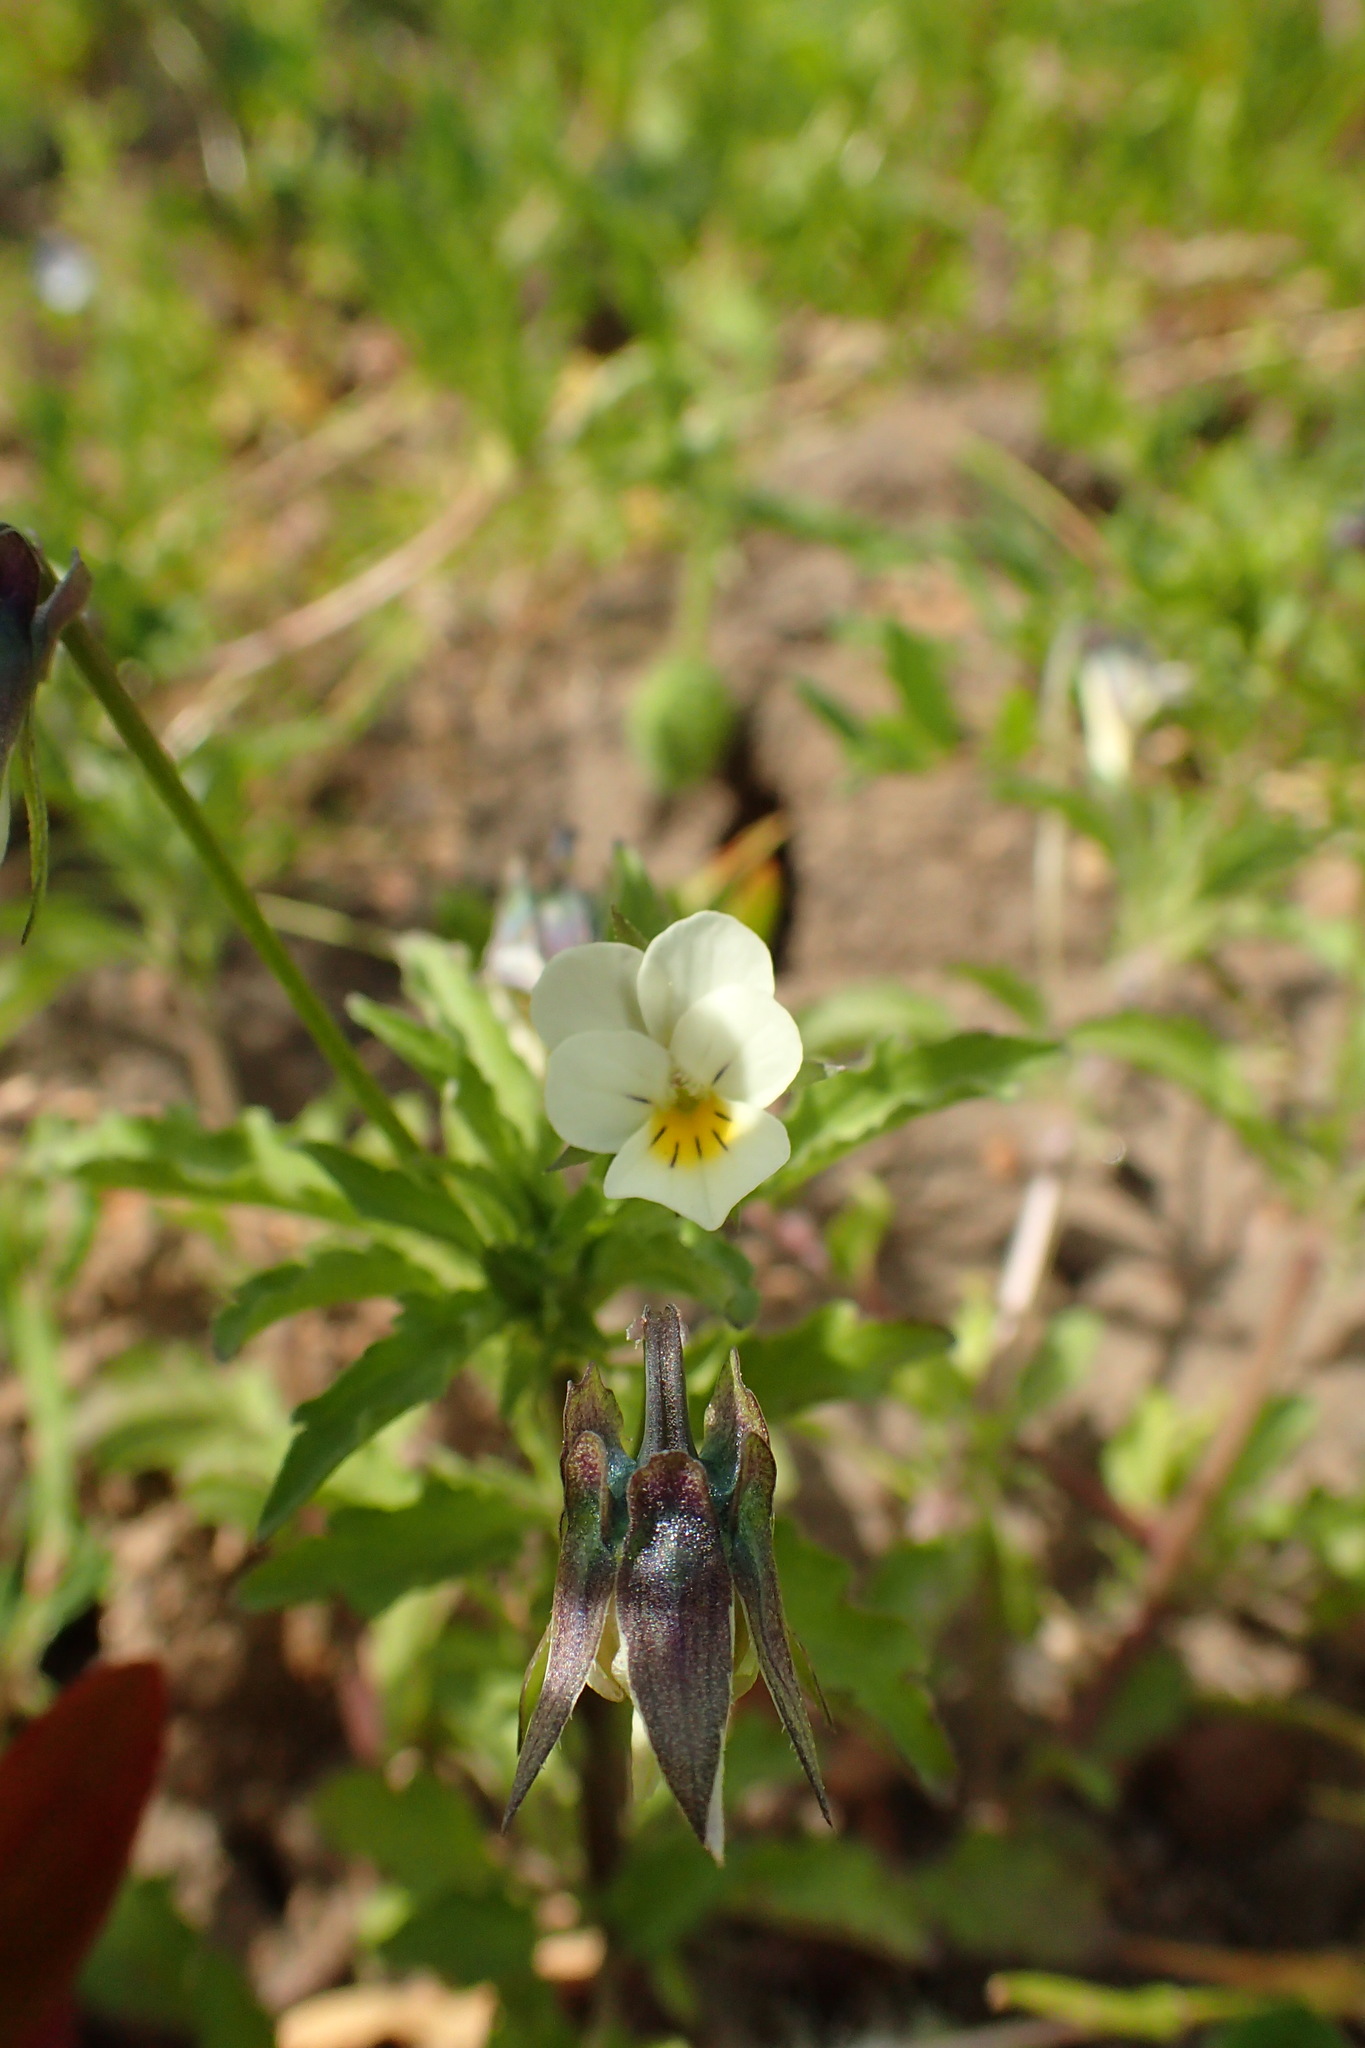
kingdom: Plantae
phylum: Tracheophyta
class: Magnoliopsida
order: Malpighiales
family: Violaceae
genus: Viola
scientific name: Viola arvensis
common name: Field pansy
